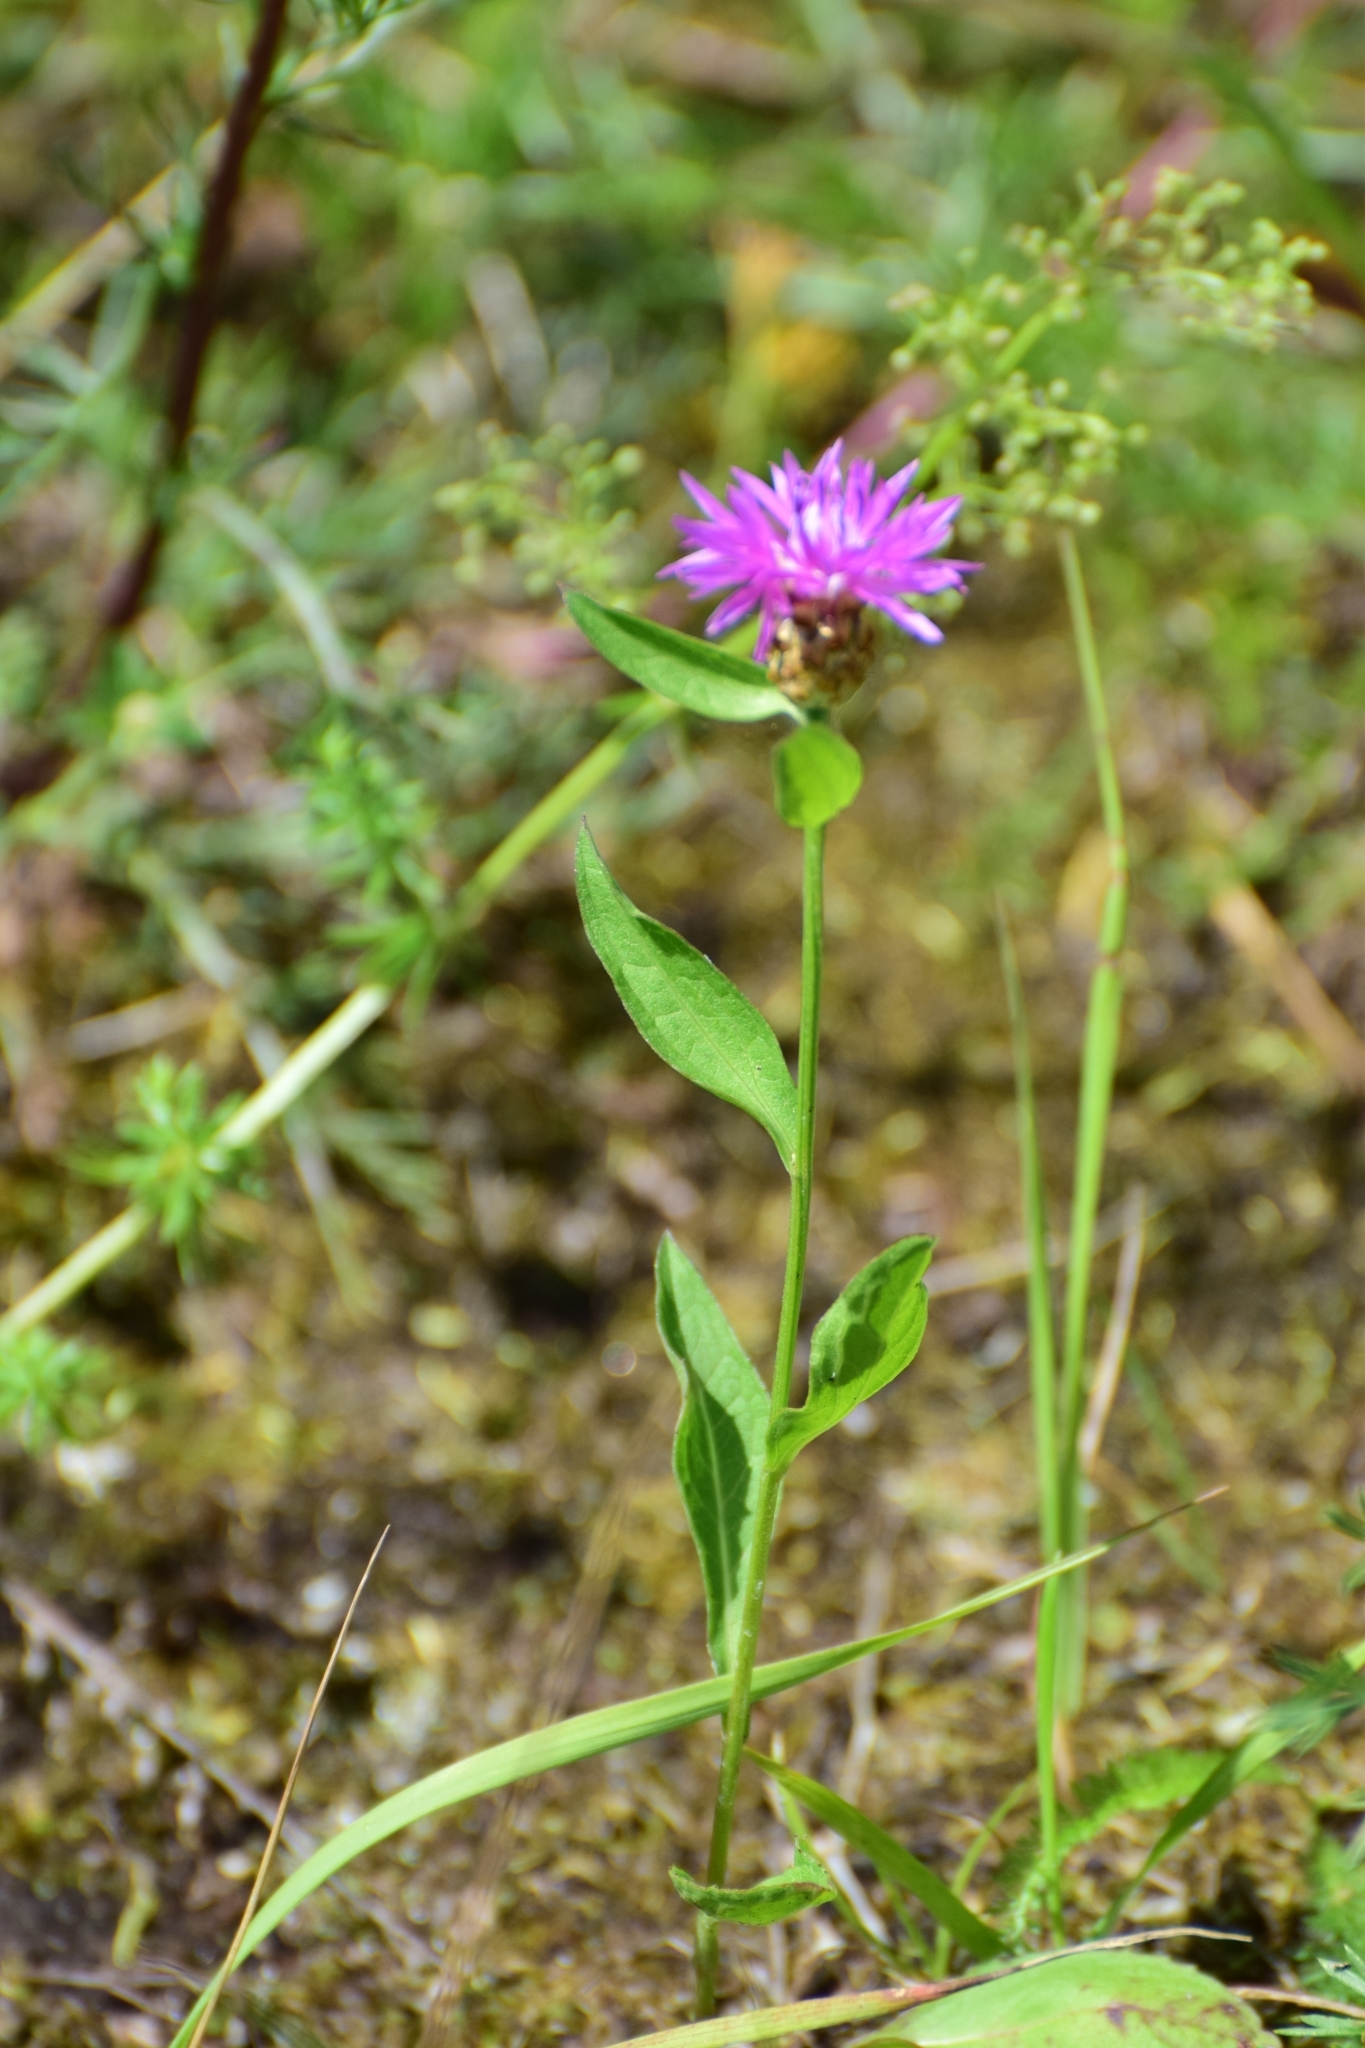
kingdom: Plantae
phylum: Tracheophyta
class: Magnoliopsida
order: Asterales
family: Asteraceae
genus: Centaurea
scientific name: Centaurea jacea
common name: Brown knapweed
